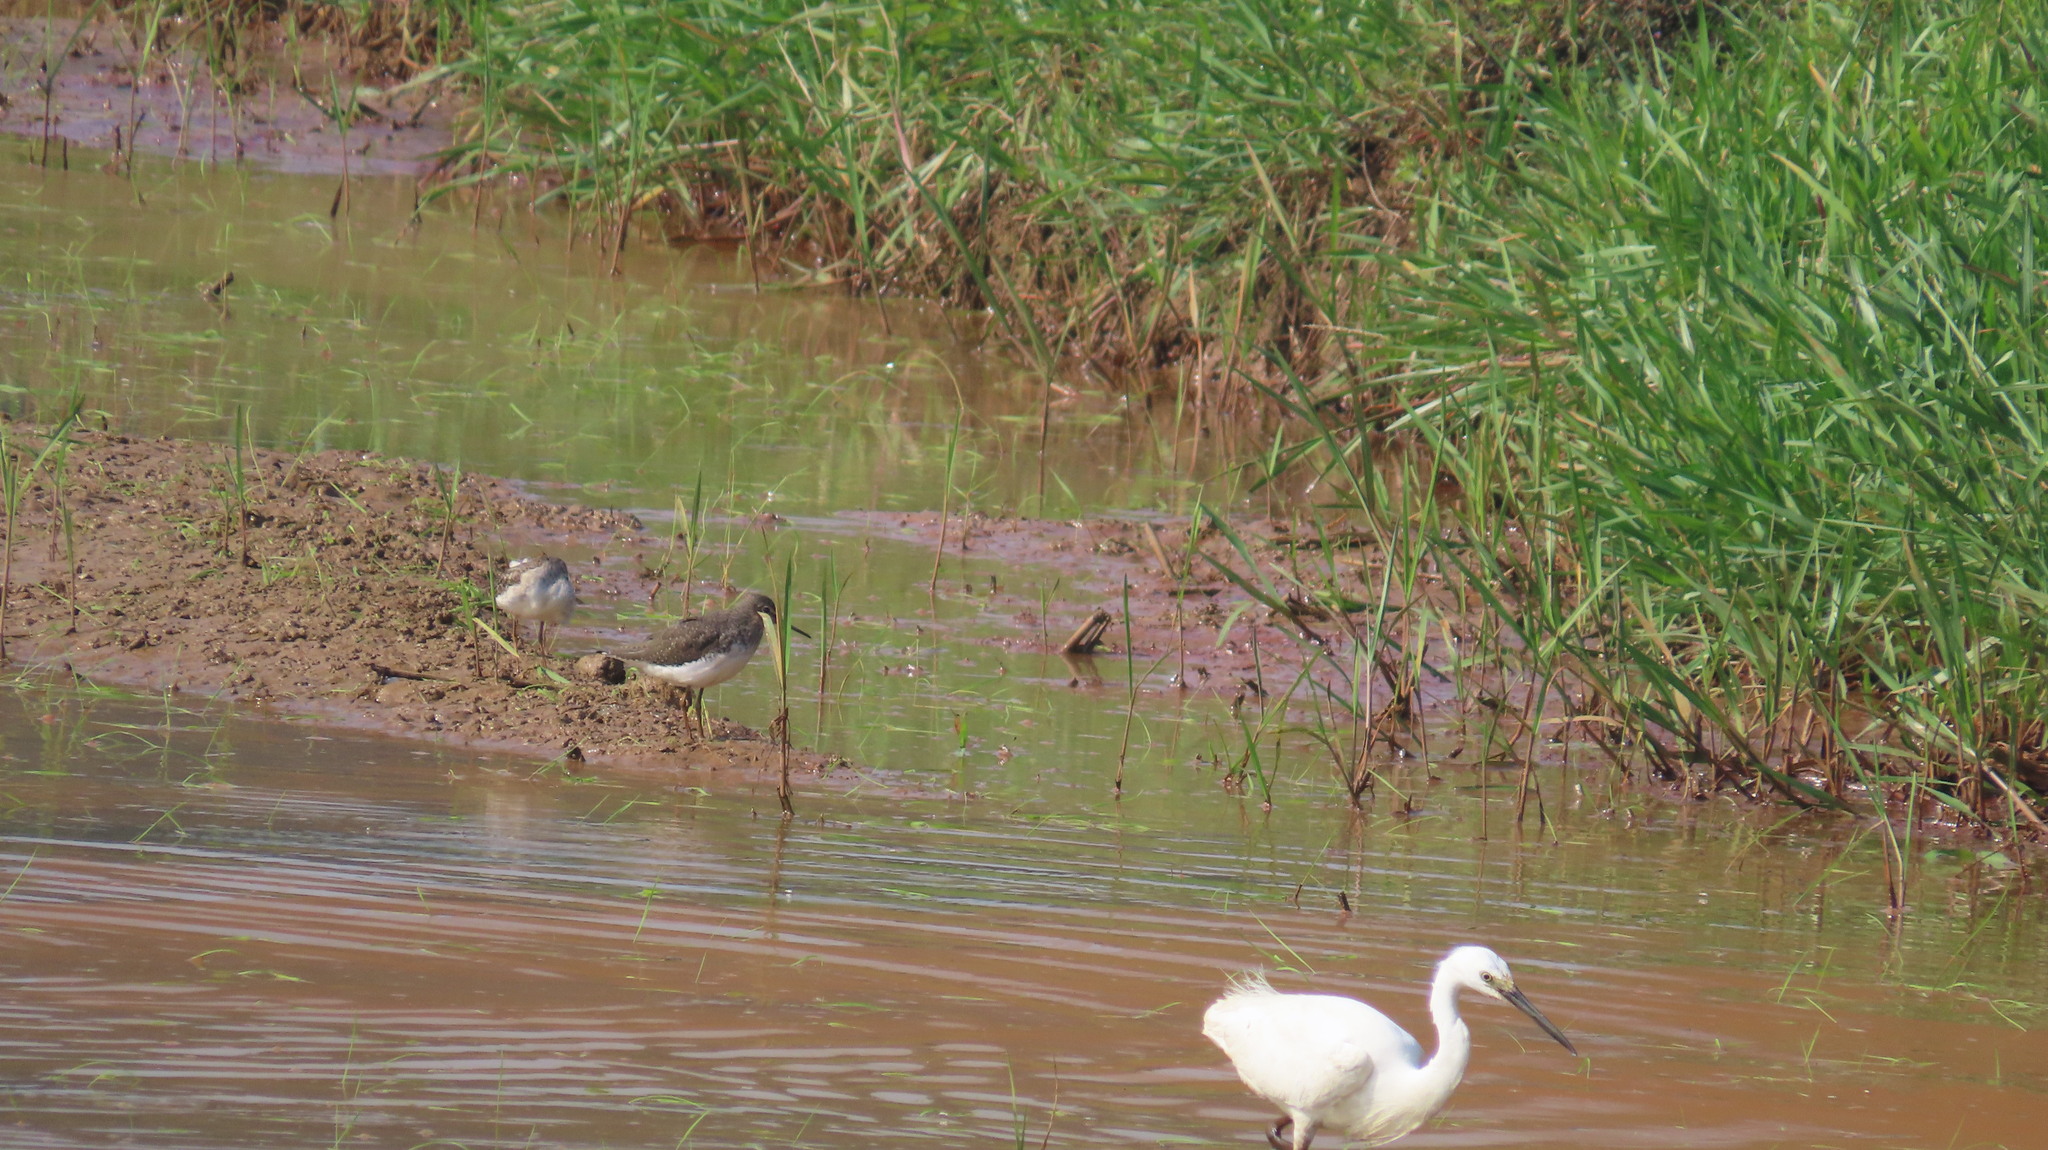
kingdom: Animalia
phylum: Chordata
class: Aves
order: Charadriiformes
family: Scolopacidae
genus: Tringa
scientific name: Tringa ochropus
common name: Green sandpiper
